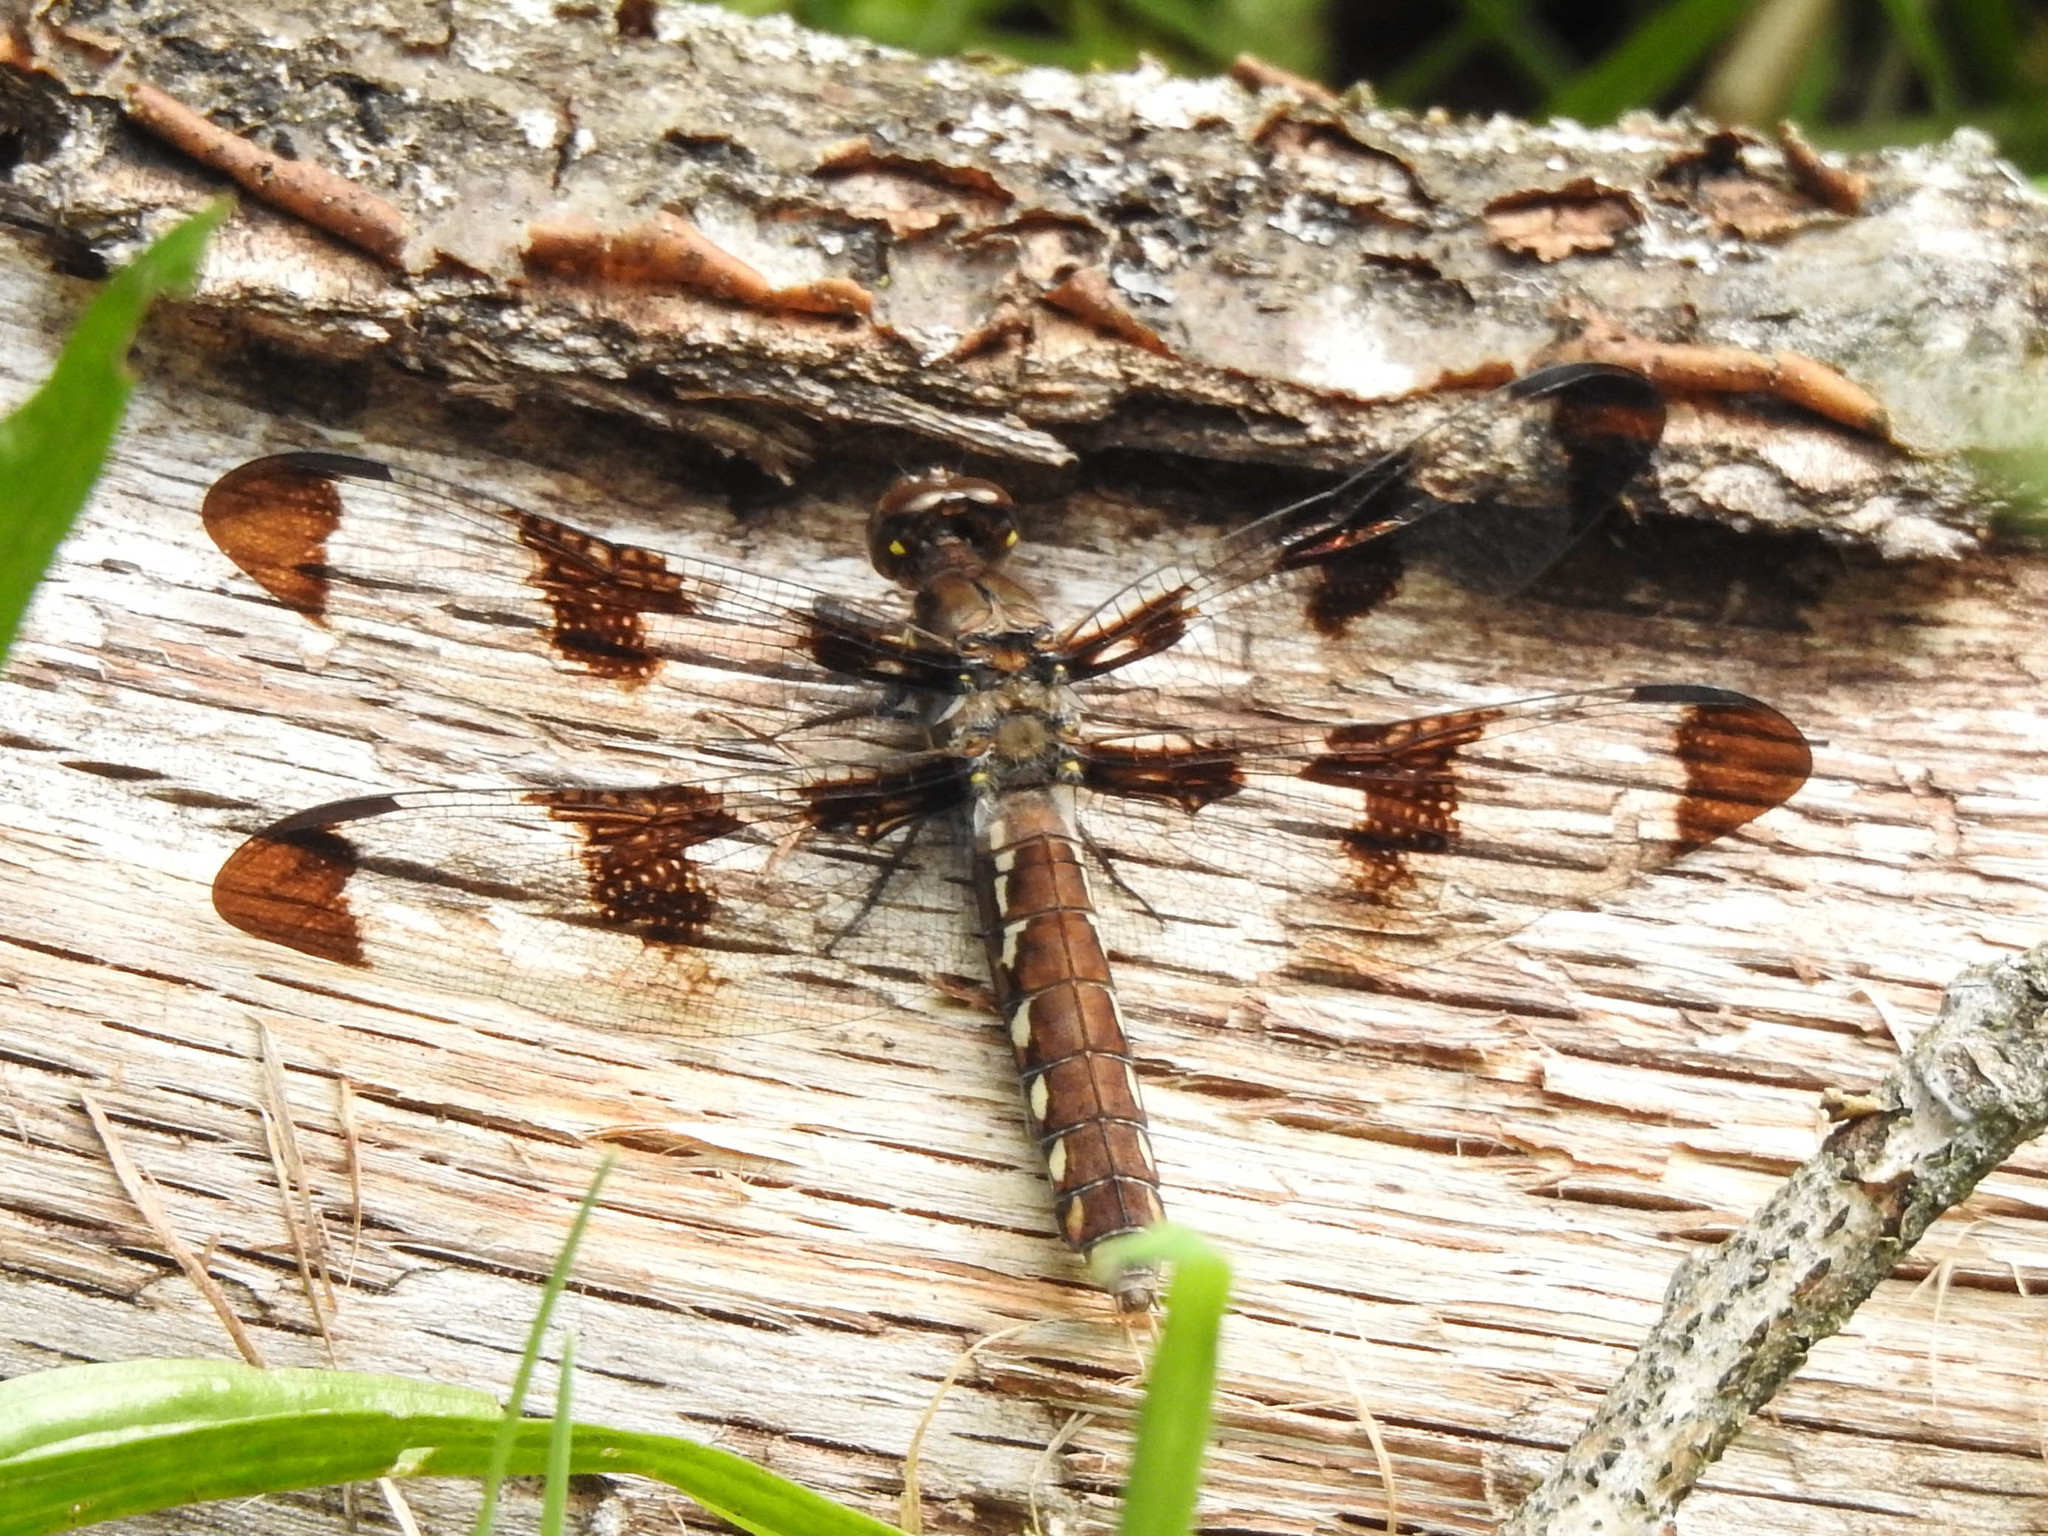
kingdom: Animalia
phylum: Arthropoda
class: Insecta
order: Odonata
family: Libellulidae
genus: Plathemis
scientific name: Plathemis lydia
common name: Common whitetail
